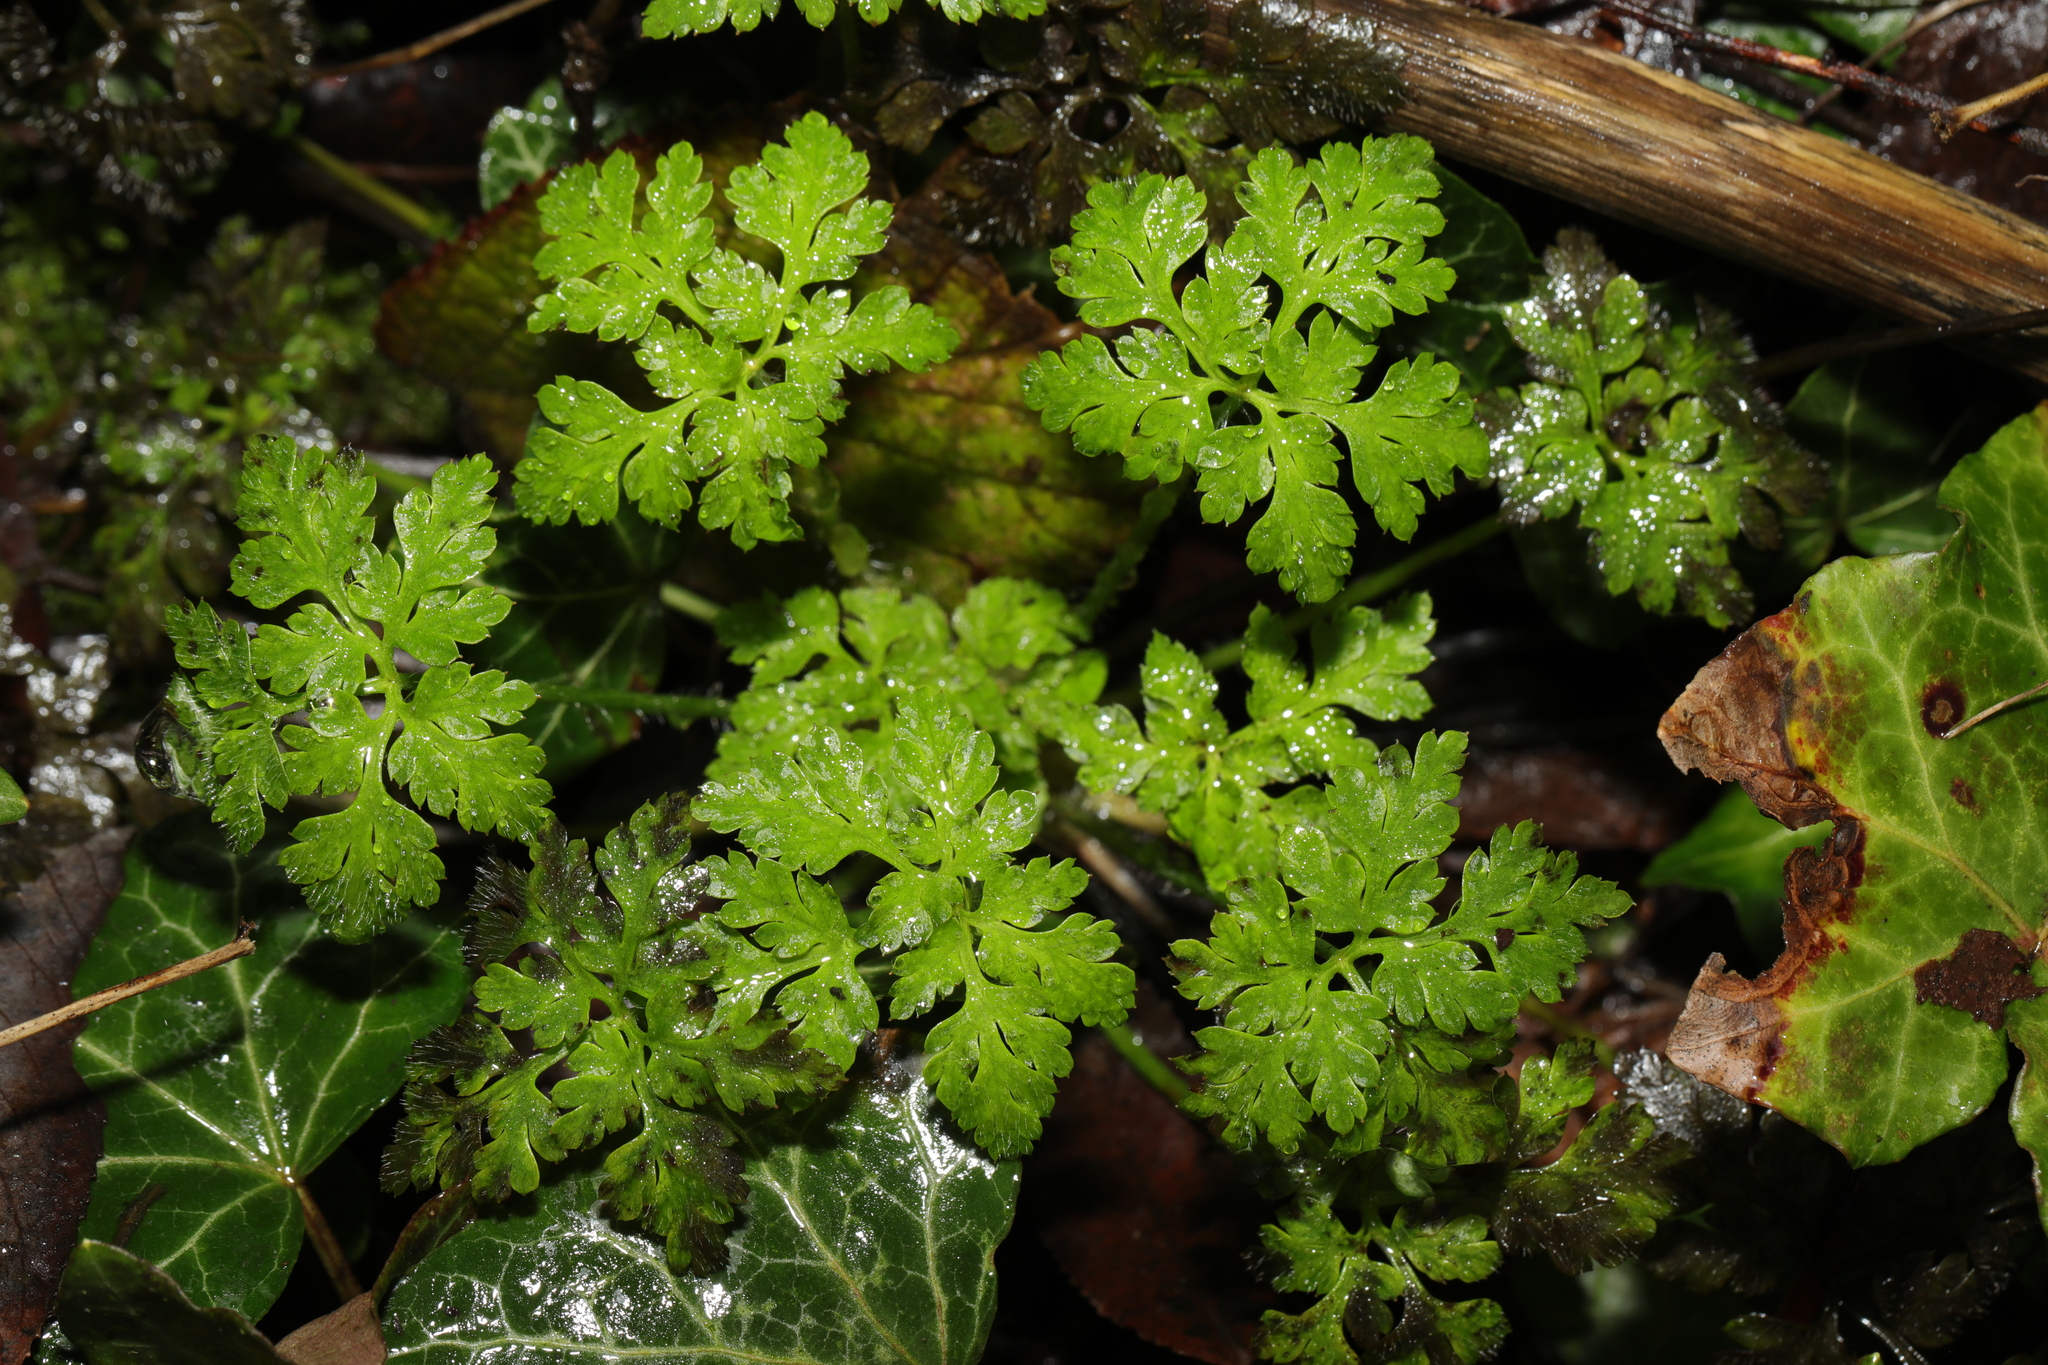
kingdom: Plantae
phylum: Tracheophyta
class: Magnoliopsida
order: Geraniales
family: Geraniaceae
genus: Geranium
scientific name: Geranium robertianum
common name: Herb-robert
